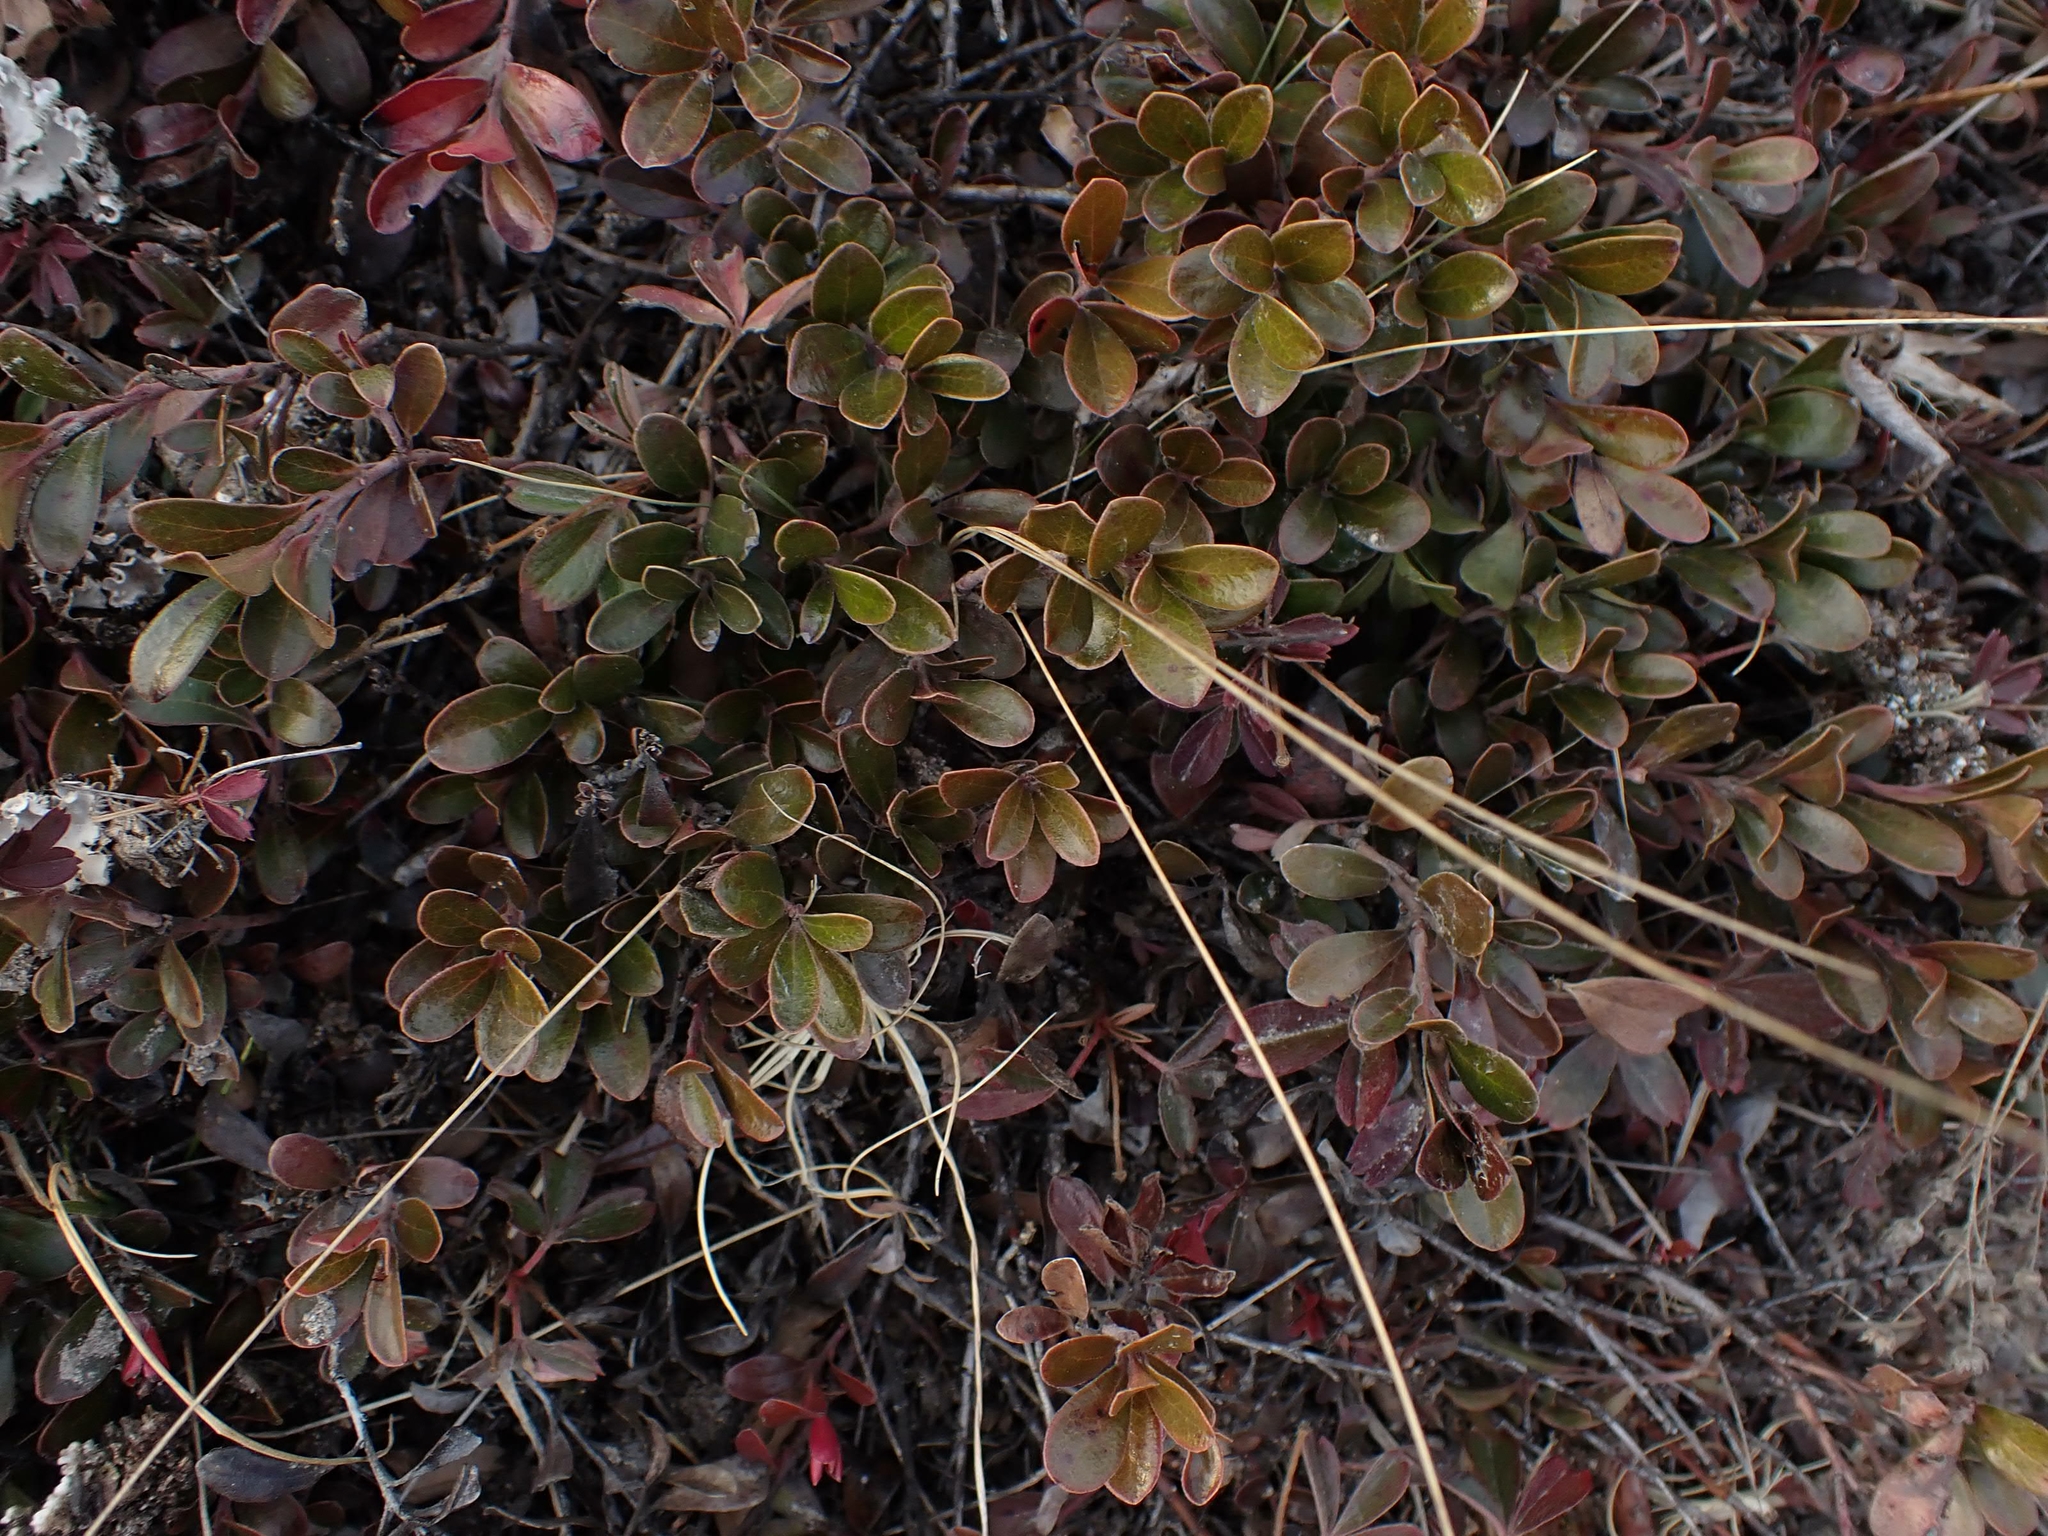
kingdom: Plantae
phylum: Tracheophyta
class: Magnoliopsida
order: Ericales
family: Ericaceae
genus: Arctostaphylos
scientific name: Arctostaphylos uva-ursi
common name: Bearberry
